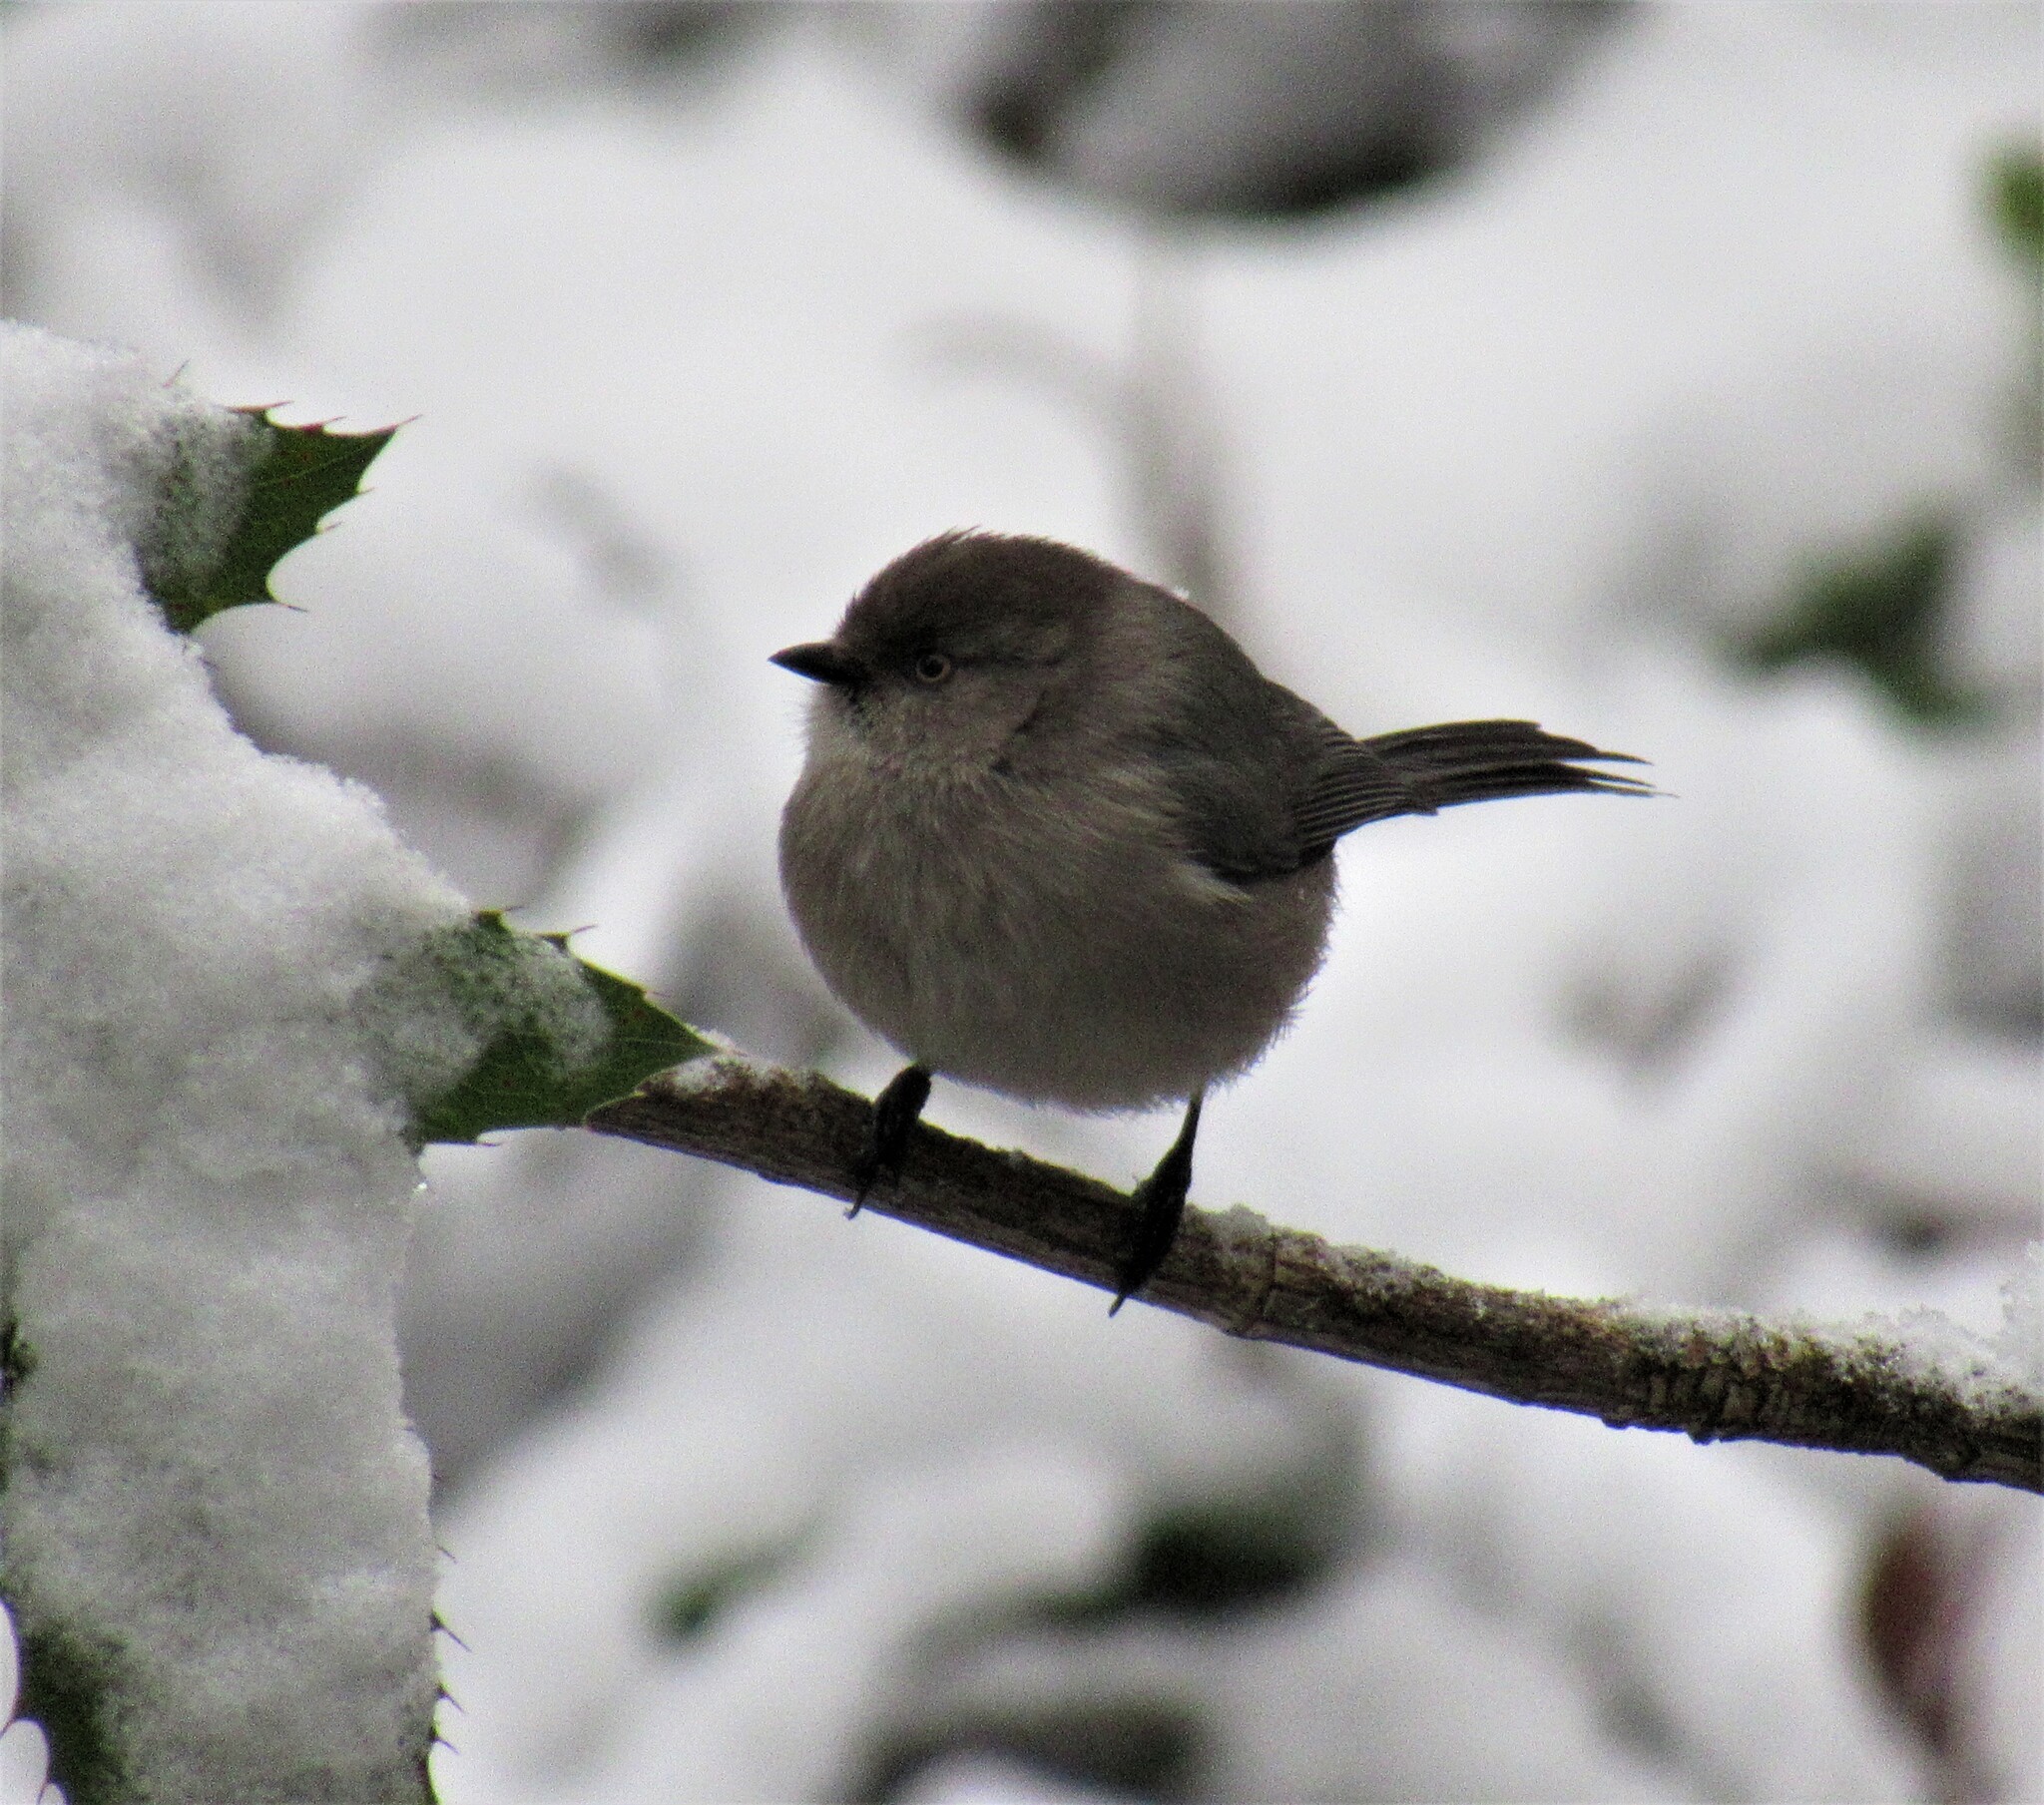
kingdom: Animalia
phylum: Chordata
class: Aves
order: Passeriformes
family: Aegithalidae
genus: Psaltriparus
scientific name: Psaltriparus minimus
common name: American bushtit
